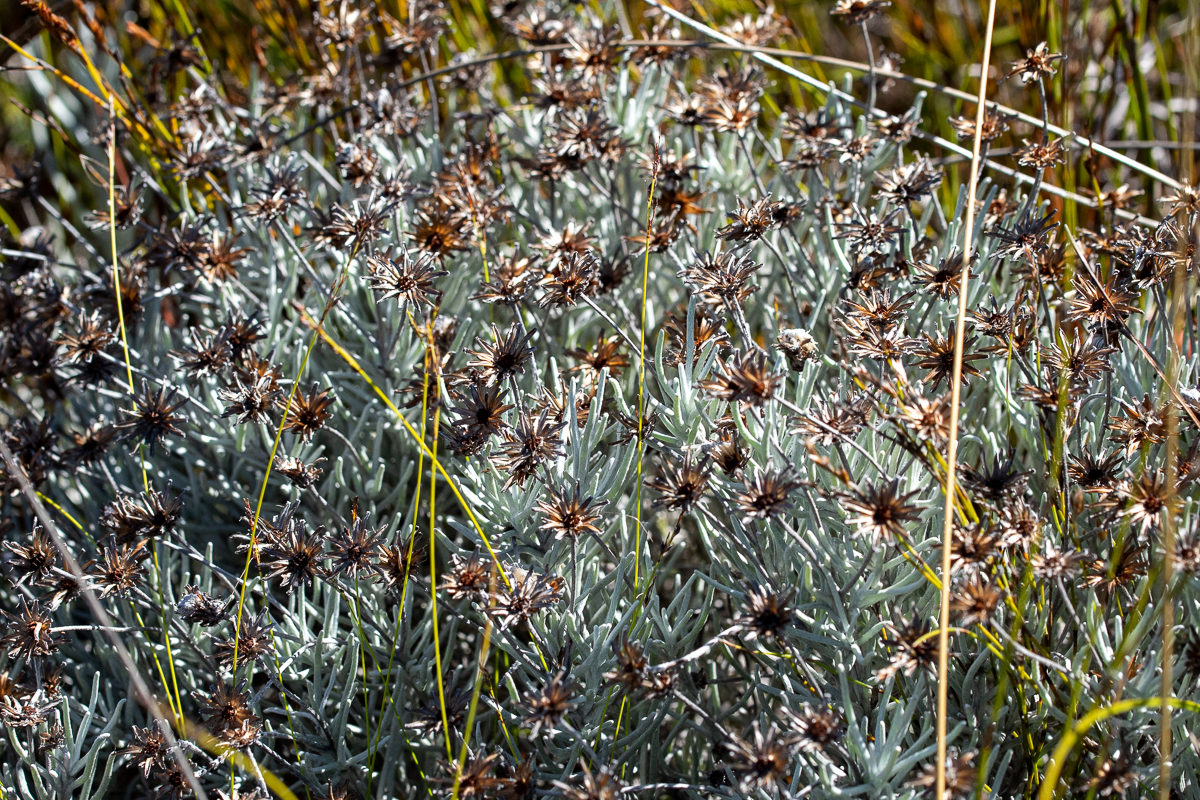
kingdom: Plantae
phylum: Tracheophyta
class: Magnoliopsida
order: Asterales
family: Asteraceae
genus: Syncarpha
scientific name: Syncarpha gnaphaloides
